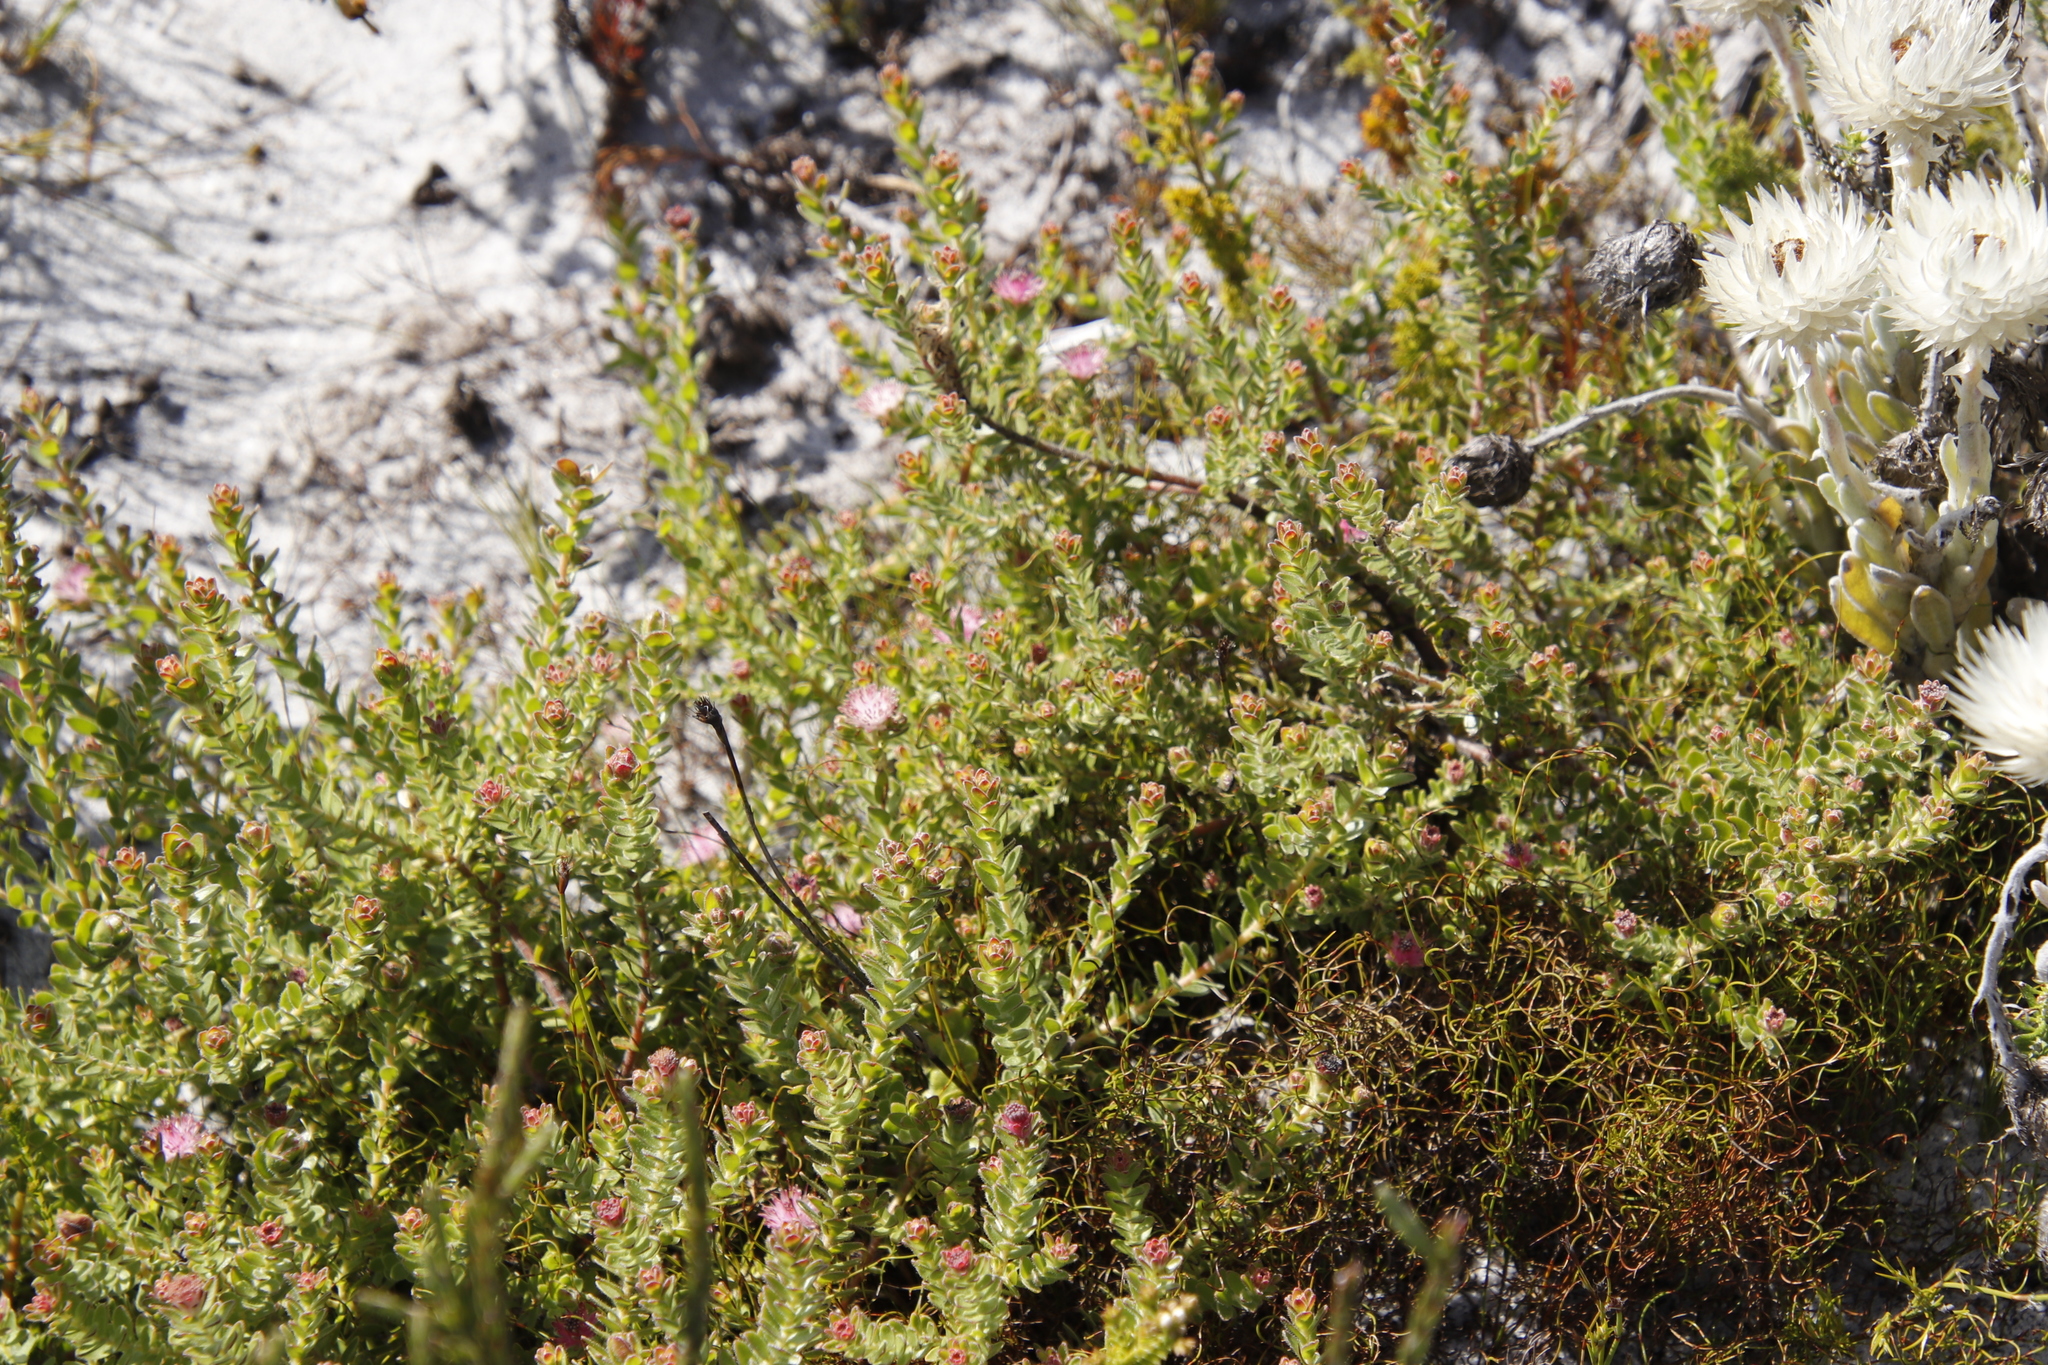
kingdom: Plantae
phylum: Tracheophyta
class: Magnoliopsida
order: Proteales
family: Proteaceae
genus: Diastella
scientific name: Diastella divaricata
